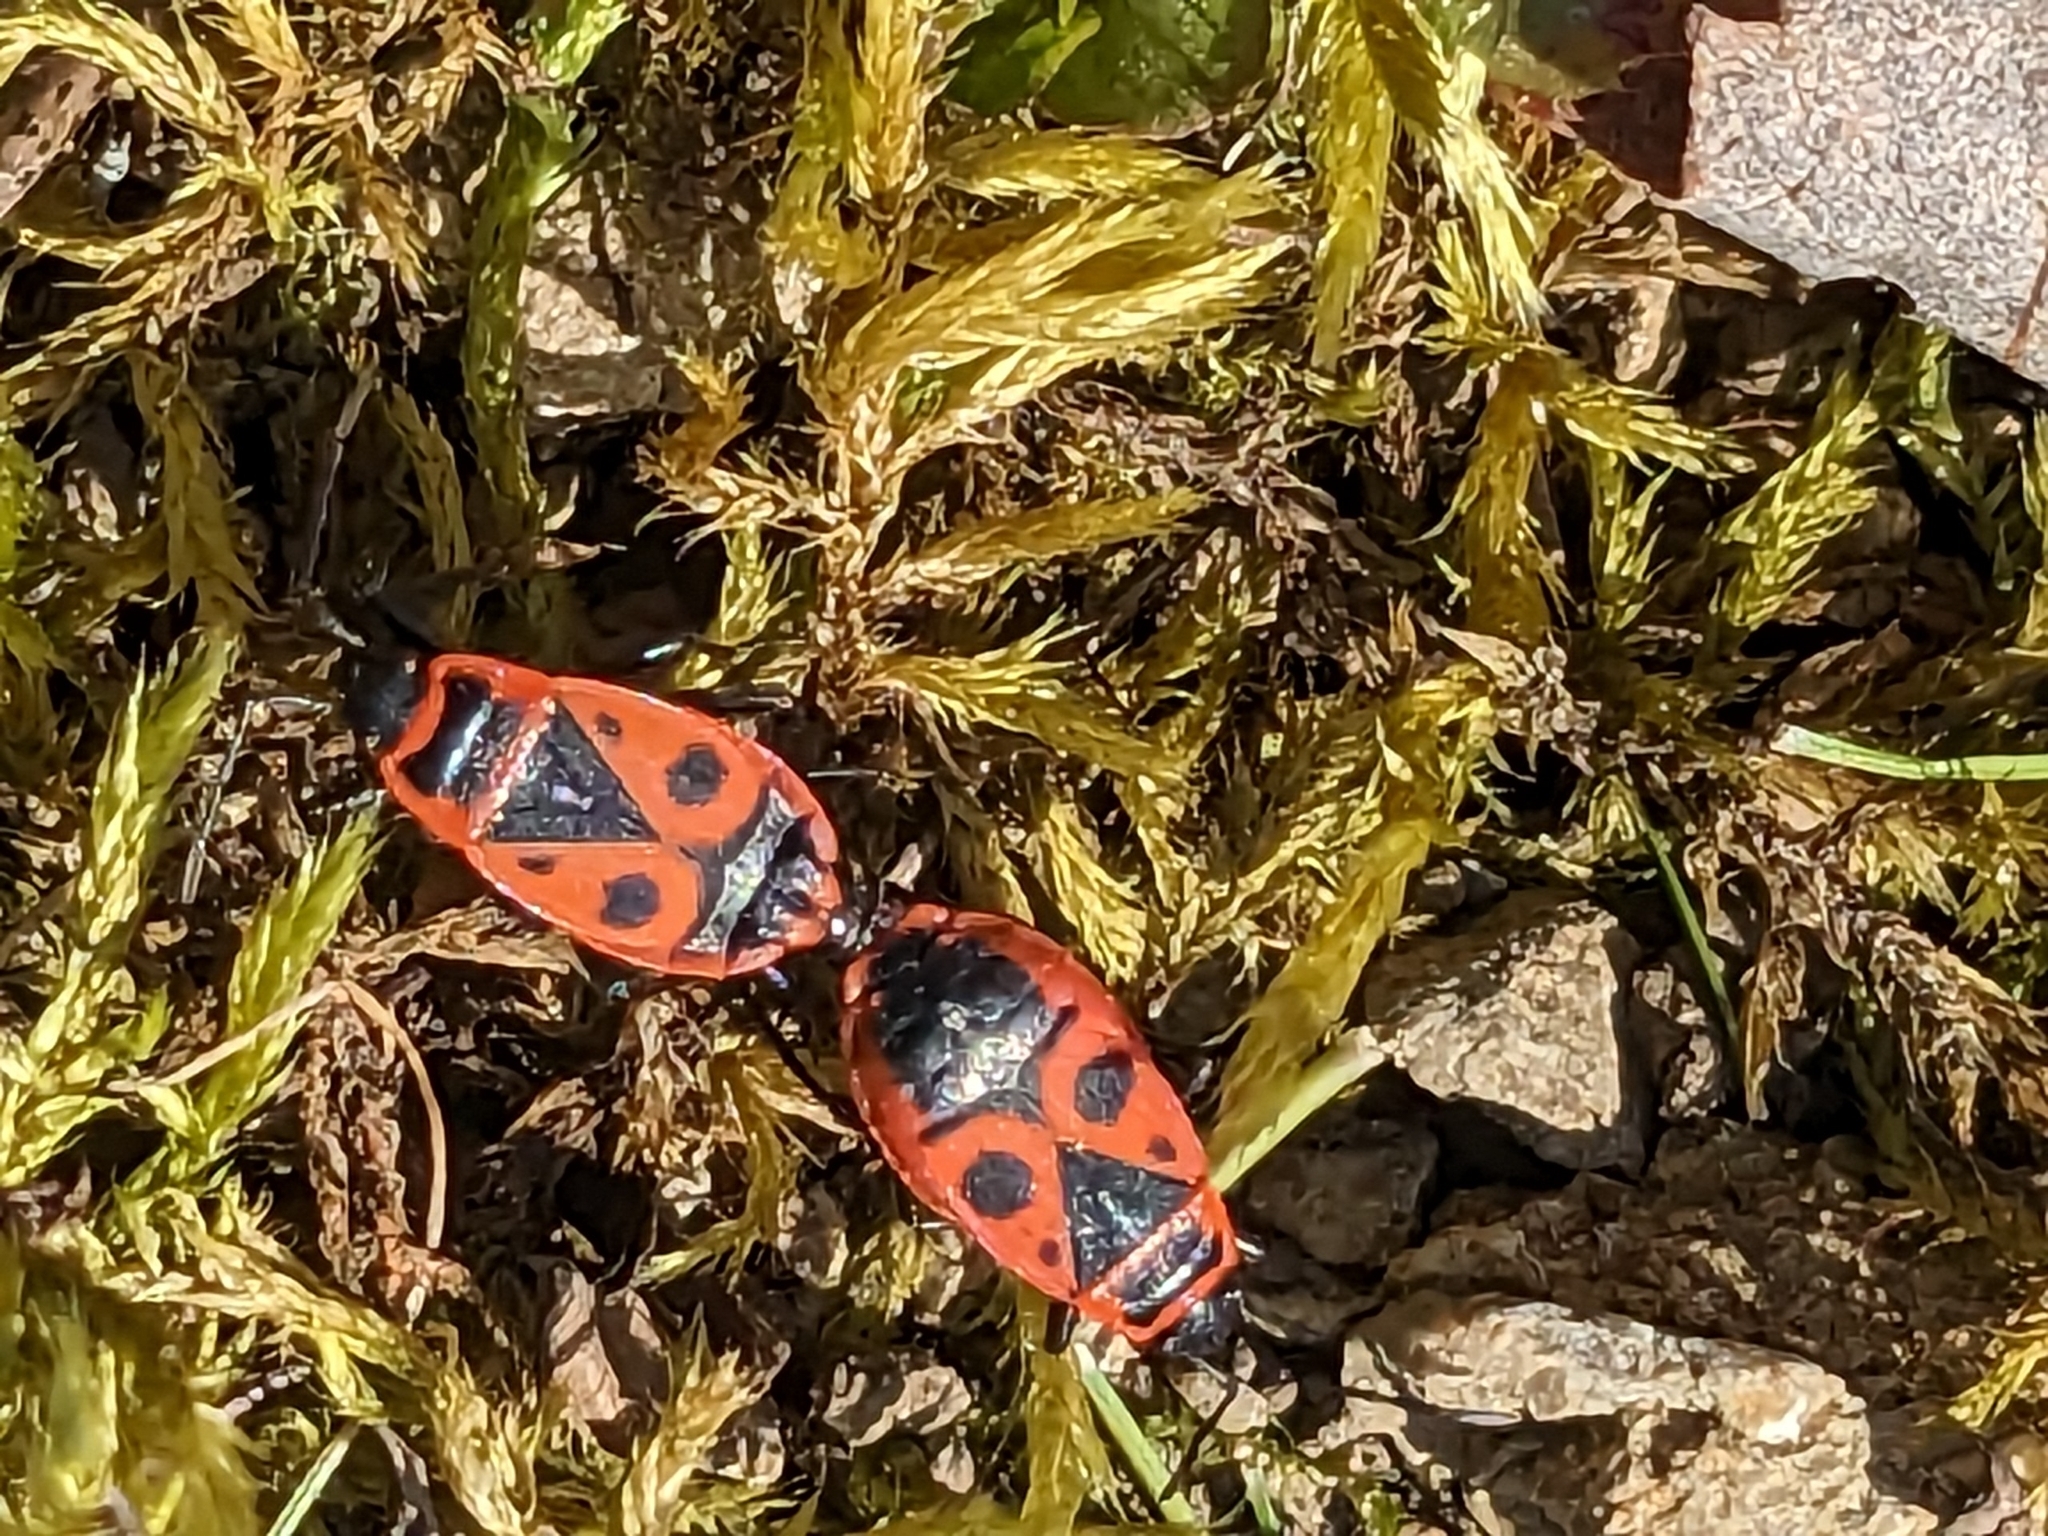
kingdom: Animalia
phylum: Arthropoda
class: Insecta
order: Hemiptera
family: Pyrrhocoridae
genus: Pyrrhocoris
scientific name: Pyrrhocoris apterus
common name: Firebug
